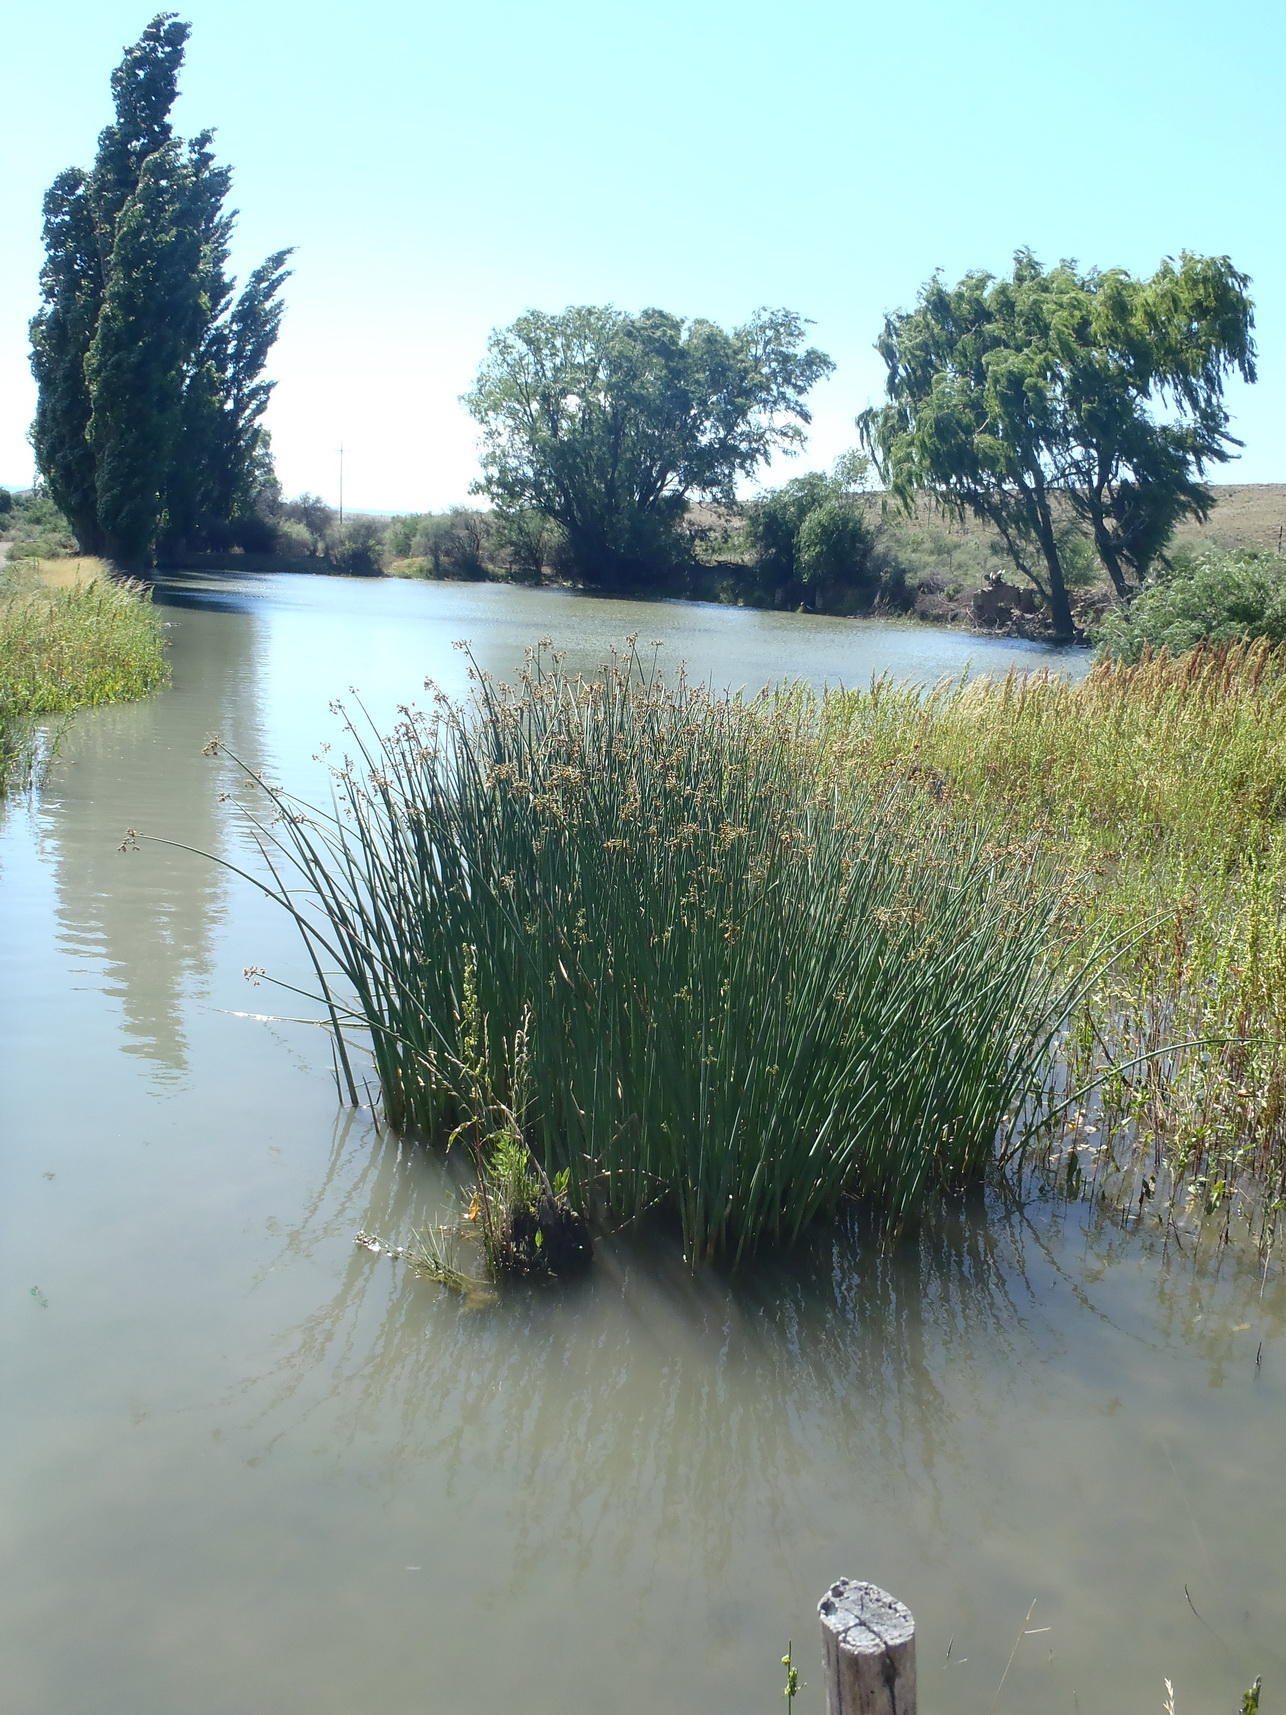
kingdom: Plantae
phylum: Tracheophyta
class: Liliopsida
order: Poales
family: Cyperaceae
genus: Schoenoplectus
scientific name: Schoenoplectus tabernaemontani
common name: Grey club-rush
